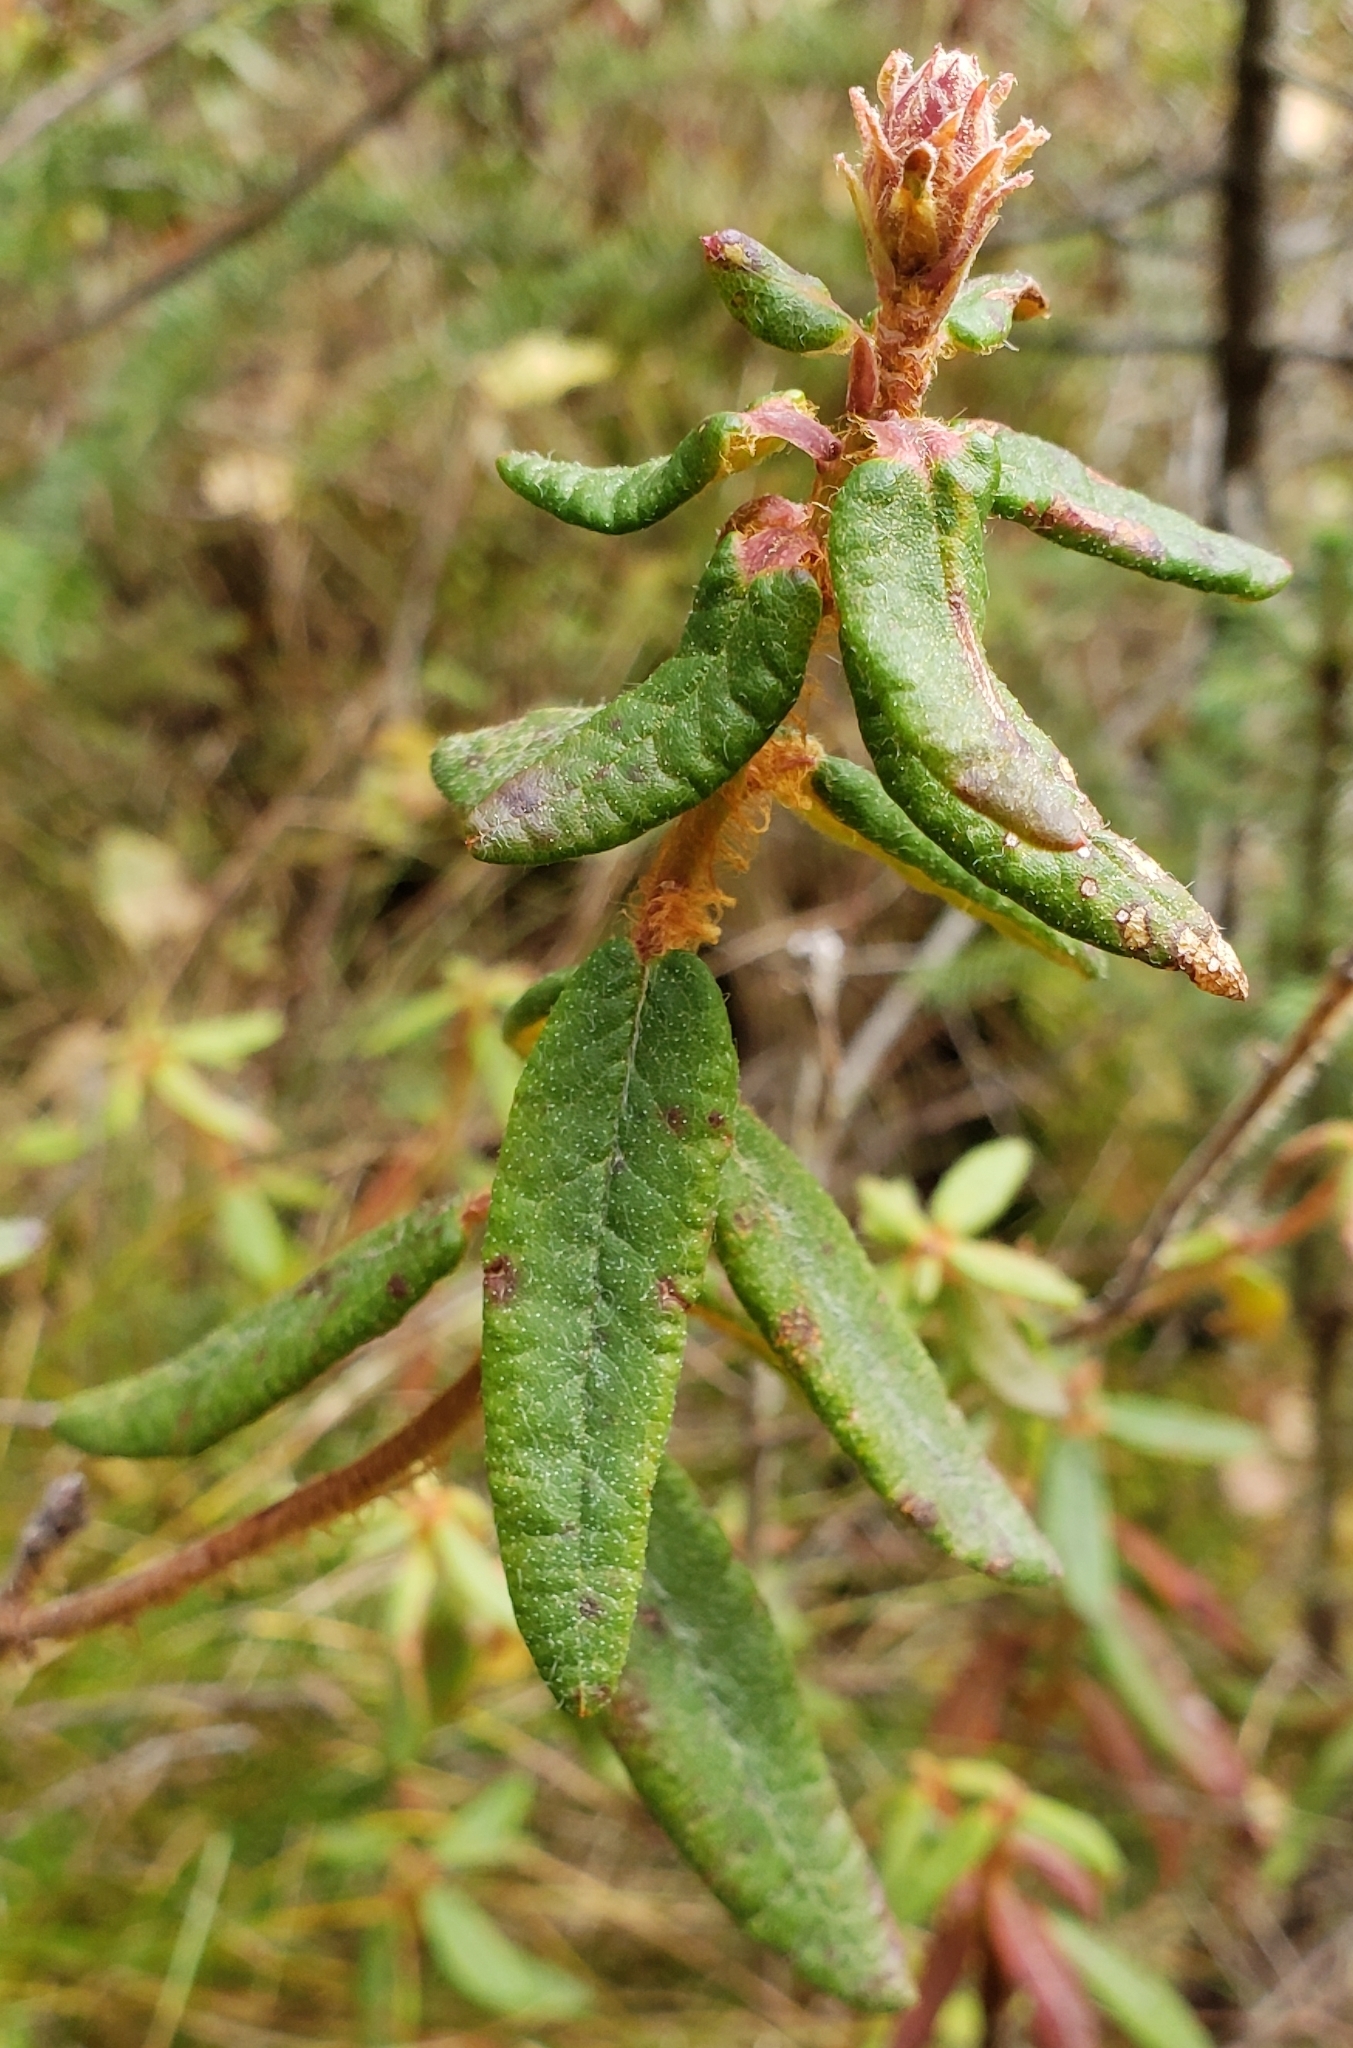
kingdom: Plantae
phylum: Tracheophyta
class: Magnoliopsida
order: Ericales
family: Ericaceae
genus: Rhododendron
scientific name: Rhododendron groenlandicum
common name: Bog labrador tea
